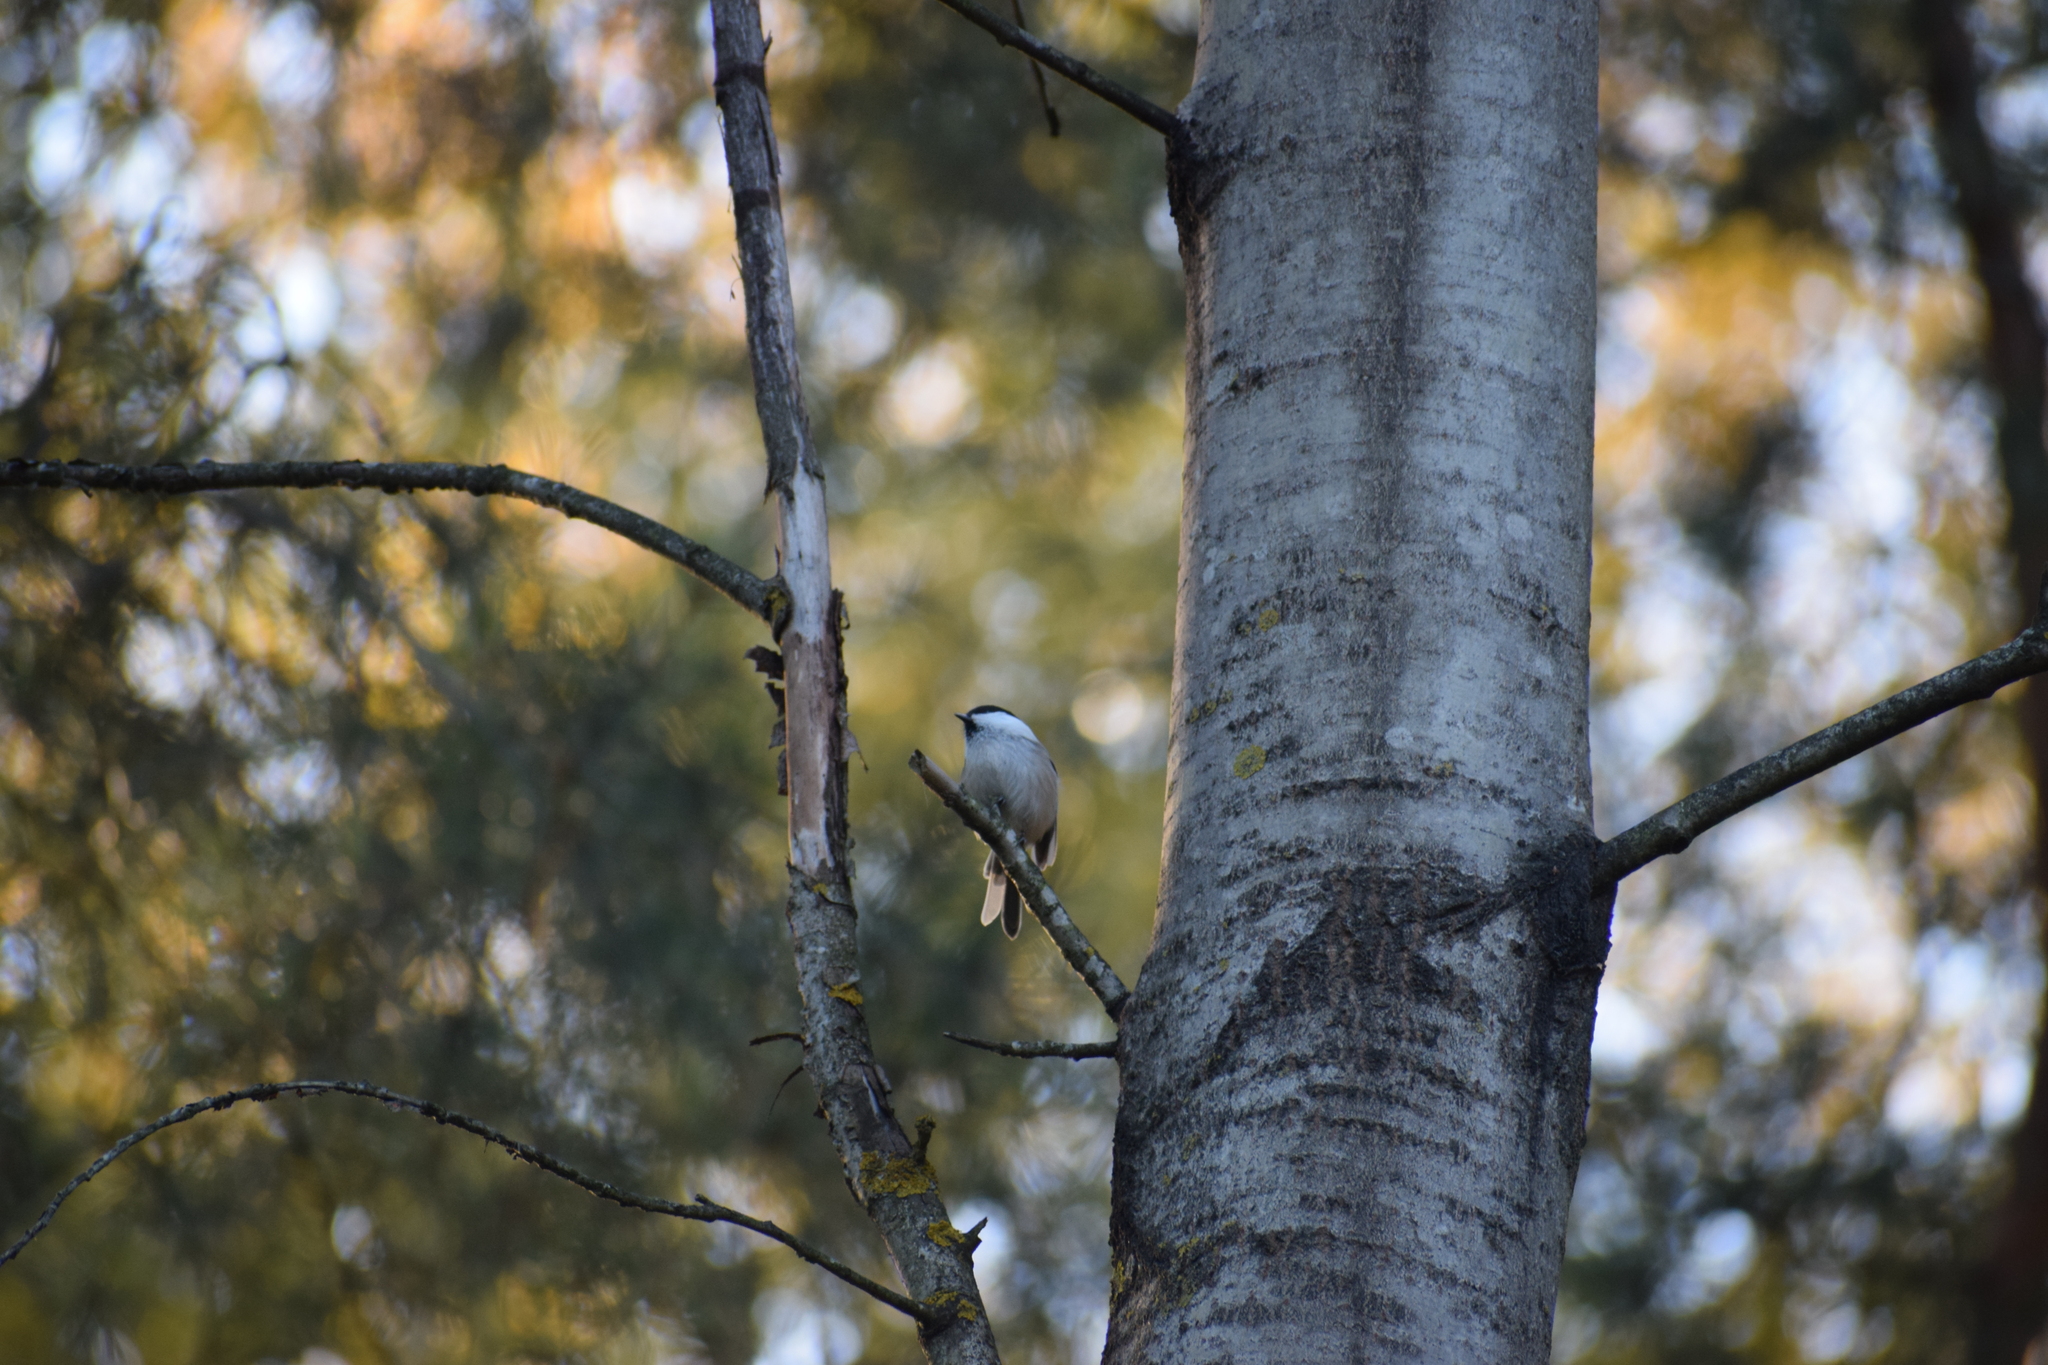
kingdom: Animalia
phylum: Chordata
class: Aves
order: Passeriformes
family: Paridae
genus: Poecile
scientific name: Poecile montanus
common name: Willow tit
